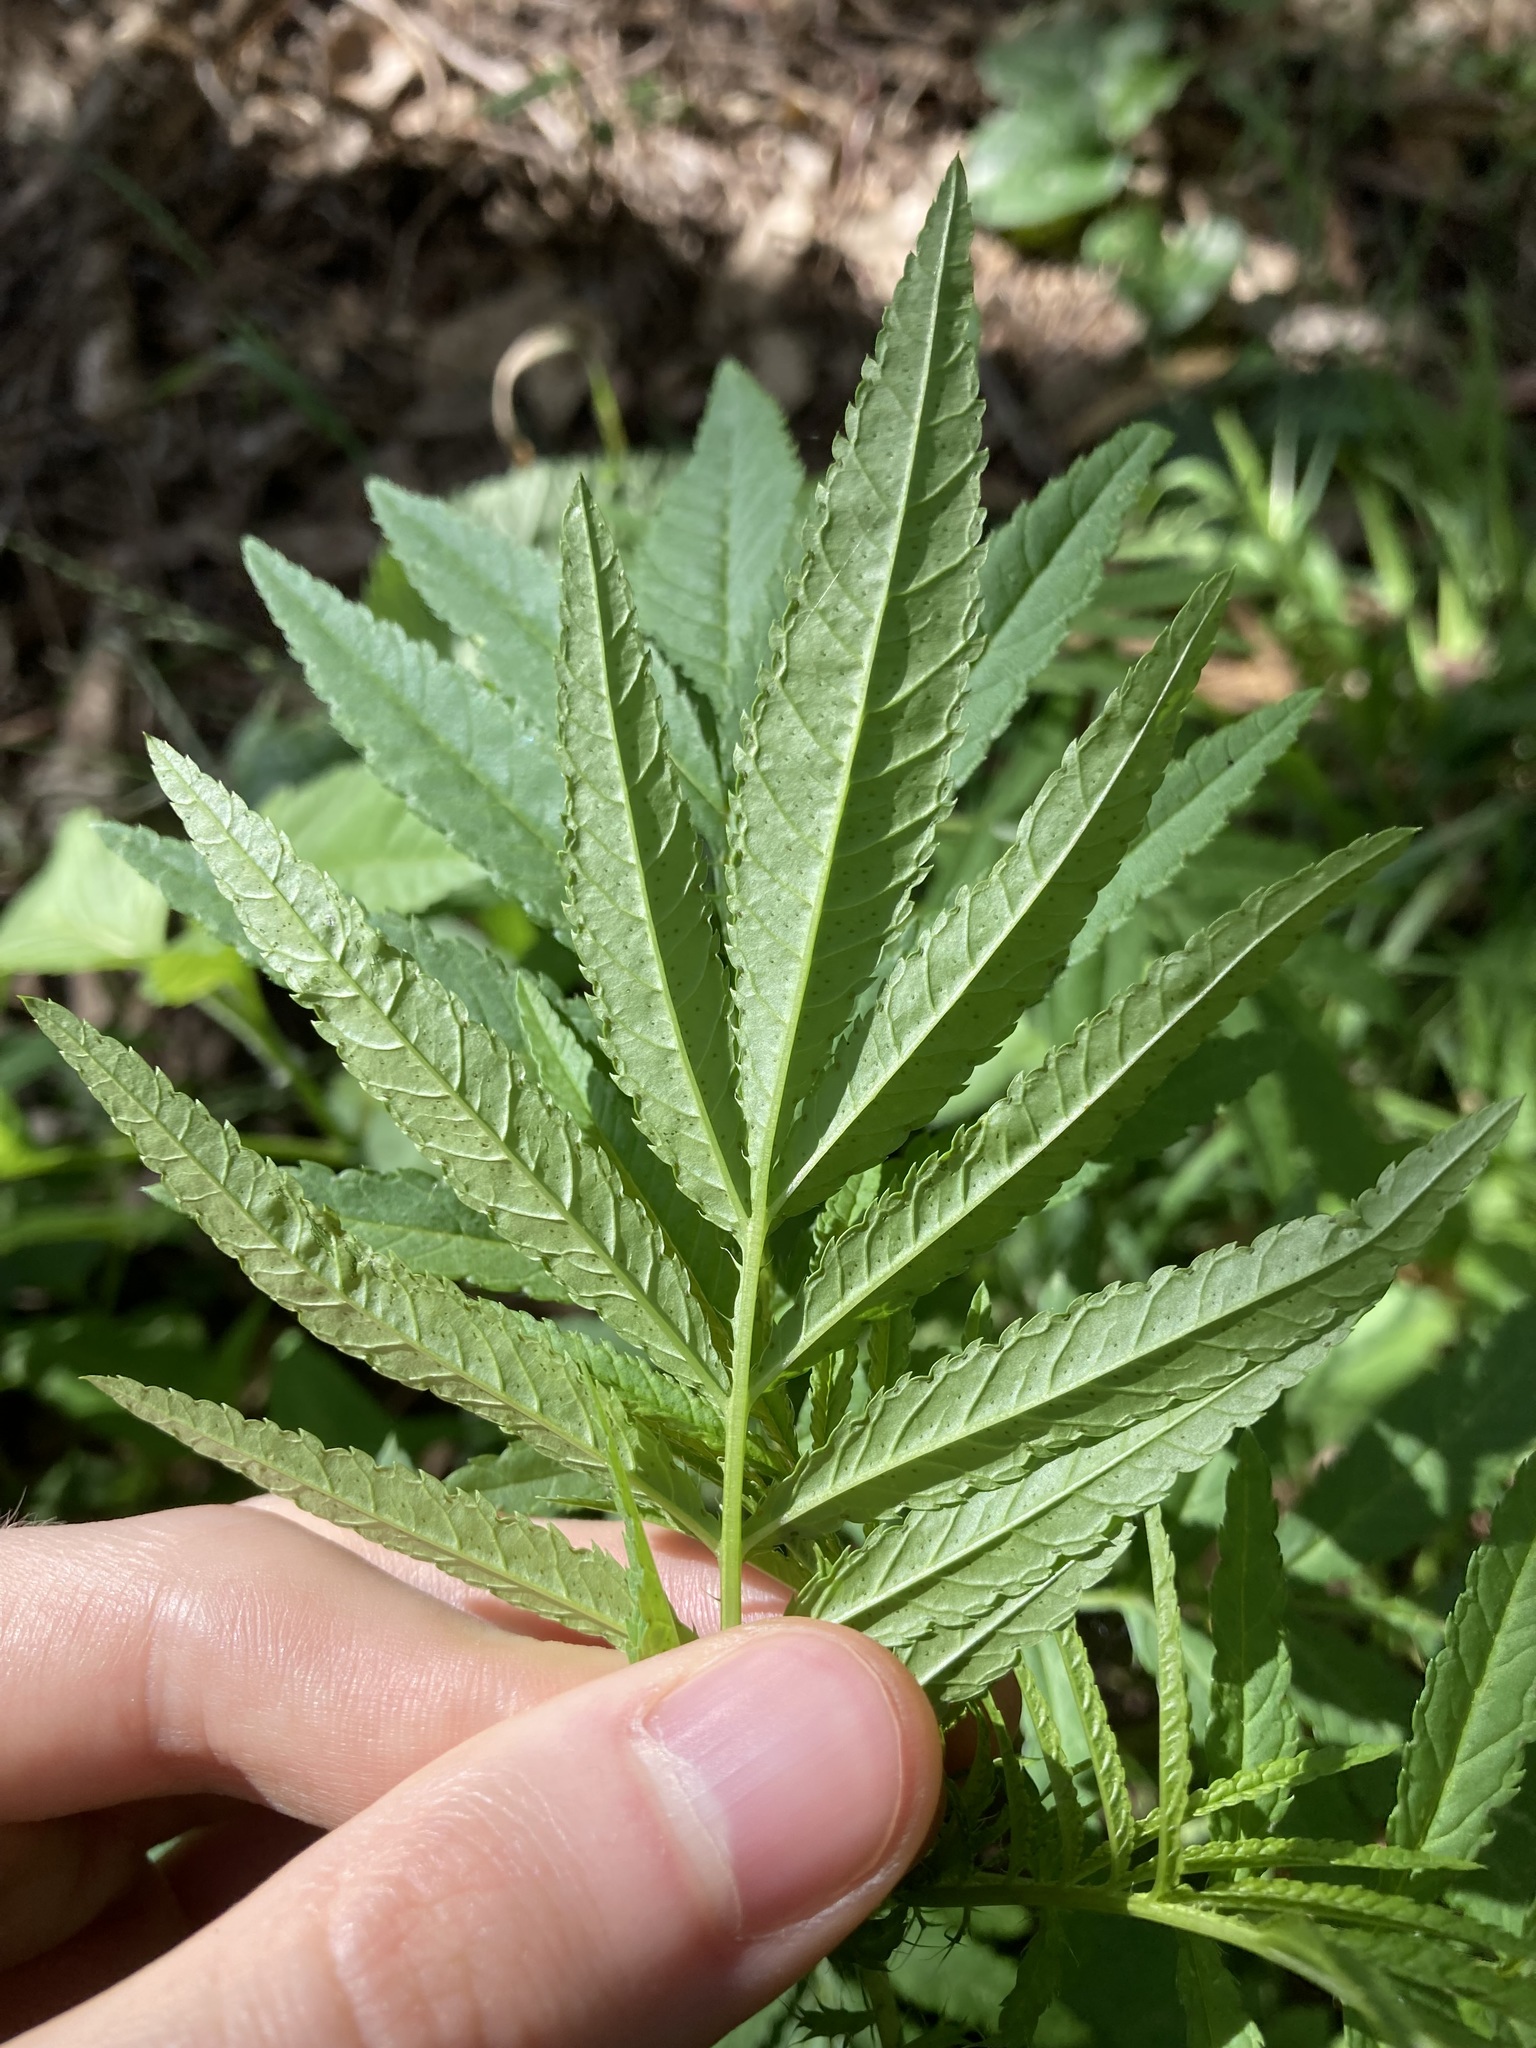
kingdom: Plantae
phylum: Tracheophyta
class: Magnoliopsida
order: Asterales
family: Asteraceae
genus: Tagetes
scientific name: Tagetes minuta
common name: Muster john henry
